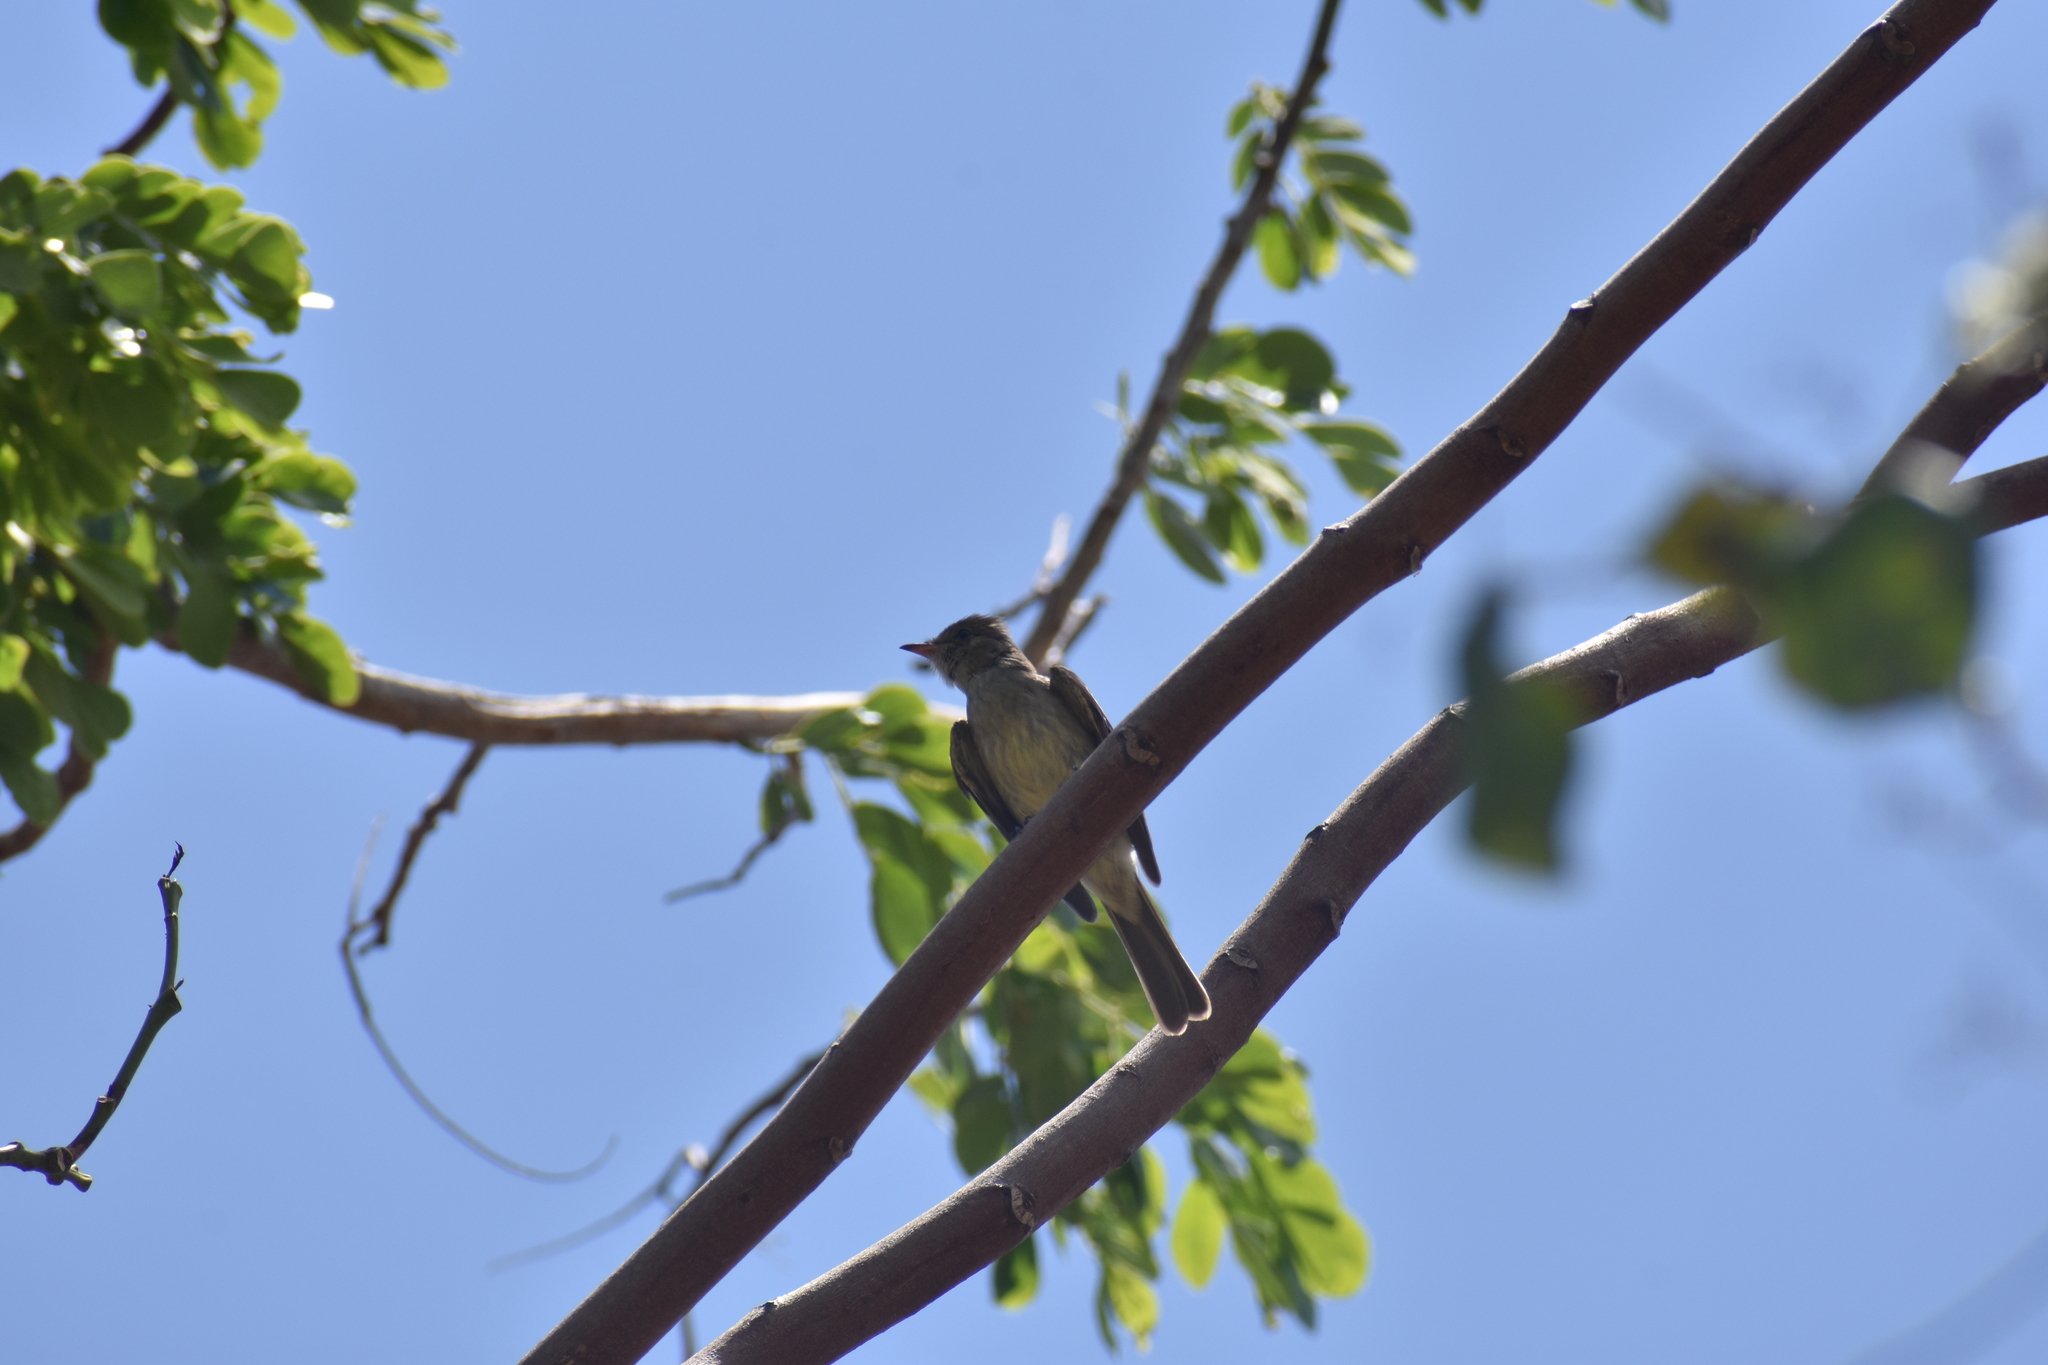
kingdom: Animalia
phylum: Chordata
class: Aves
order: Passeriformes
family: Tyrannidae
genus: Elaenia
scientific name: Elaenia martinica
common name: Caribbean elaenia
